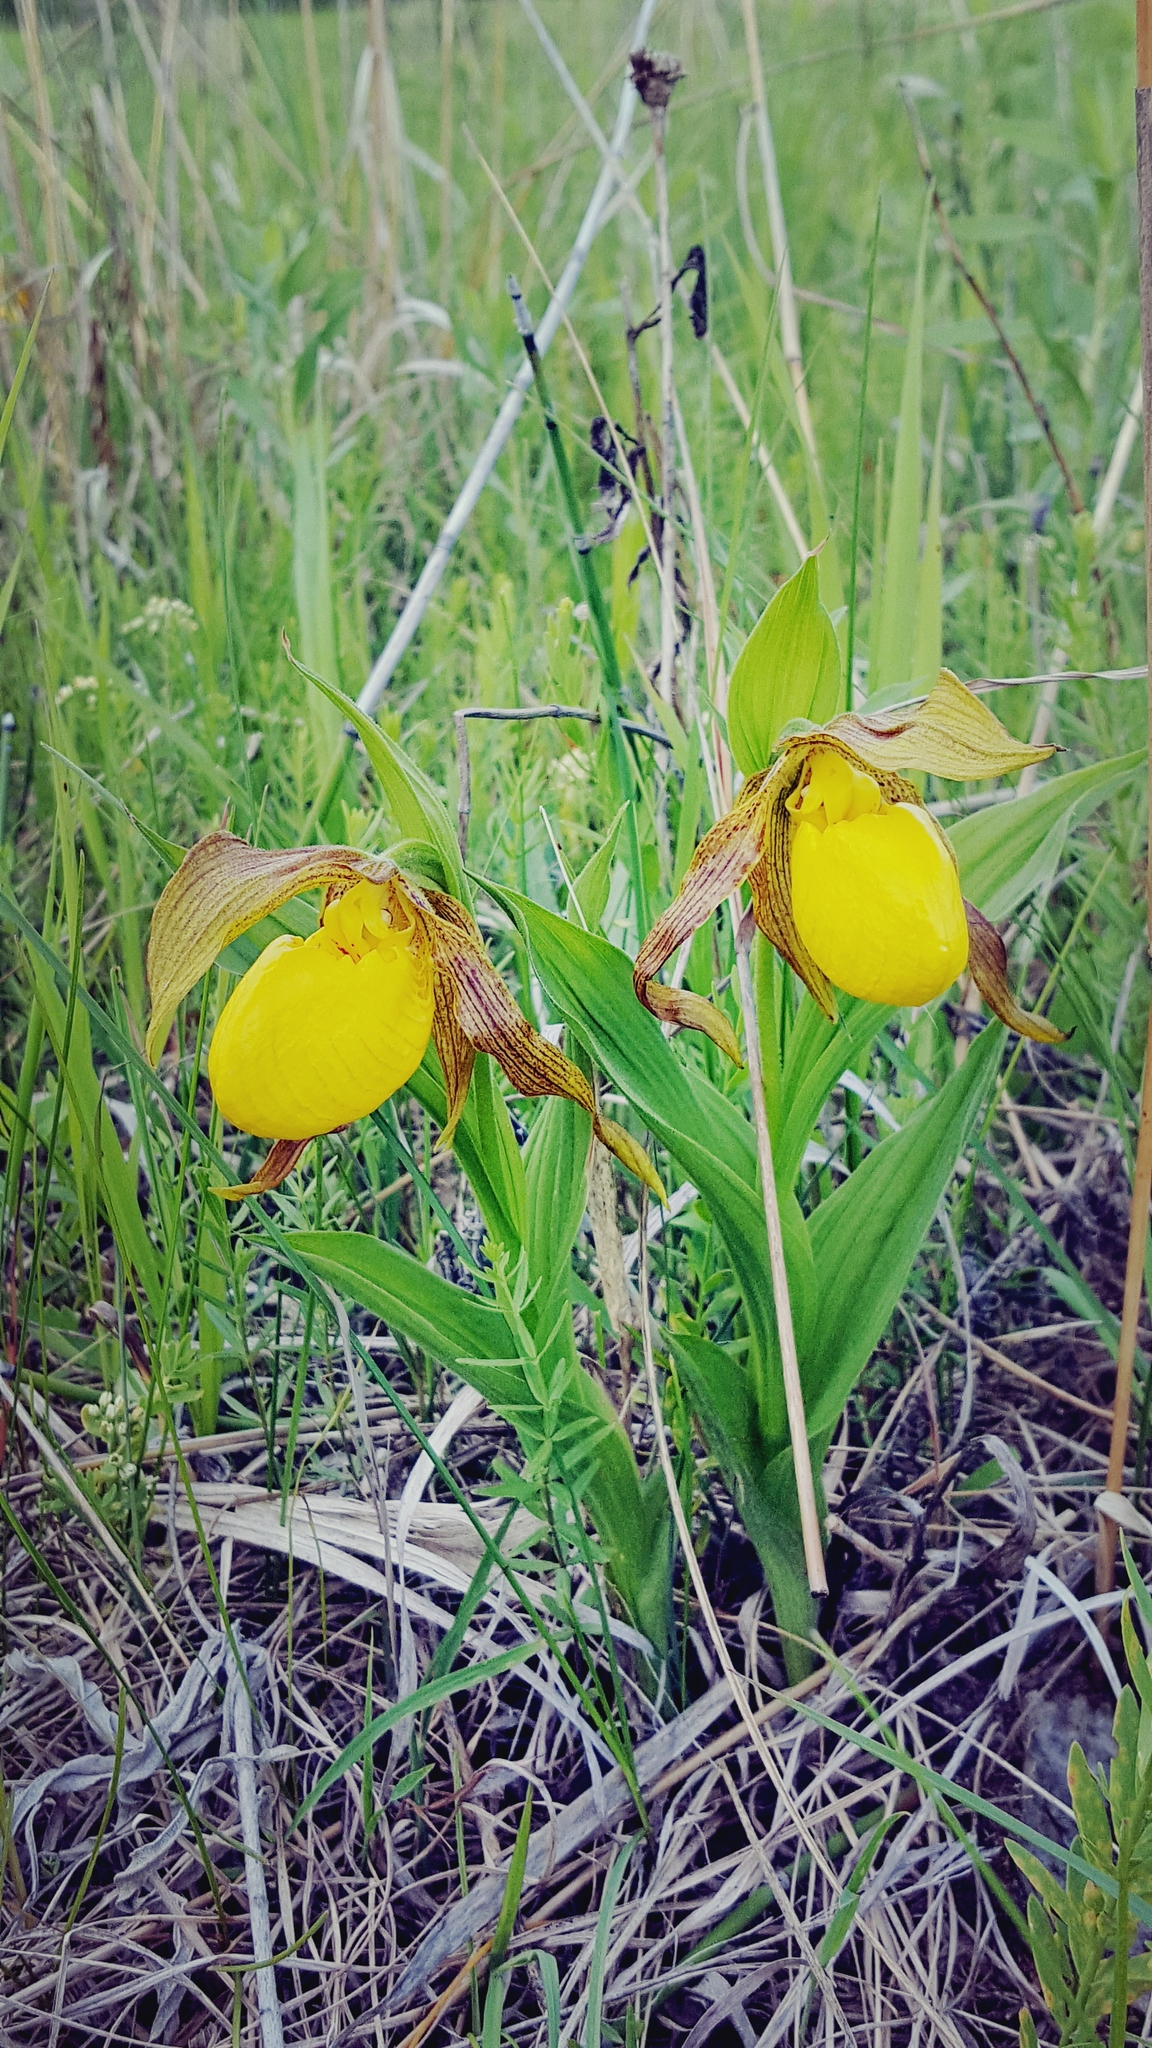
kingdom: Plantae
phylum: Tracheophyta
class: Liliopsida
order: Asparagales
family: Orchidaceae
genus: Cypripedium
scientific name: Cypripedium parviflorum
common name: American yellow lady's-slipper
